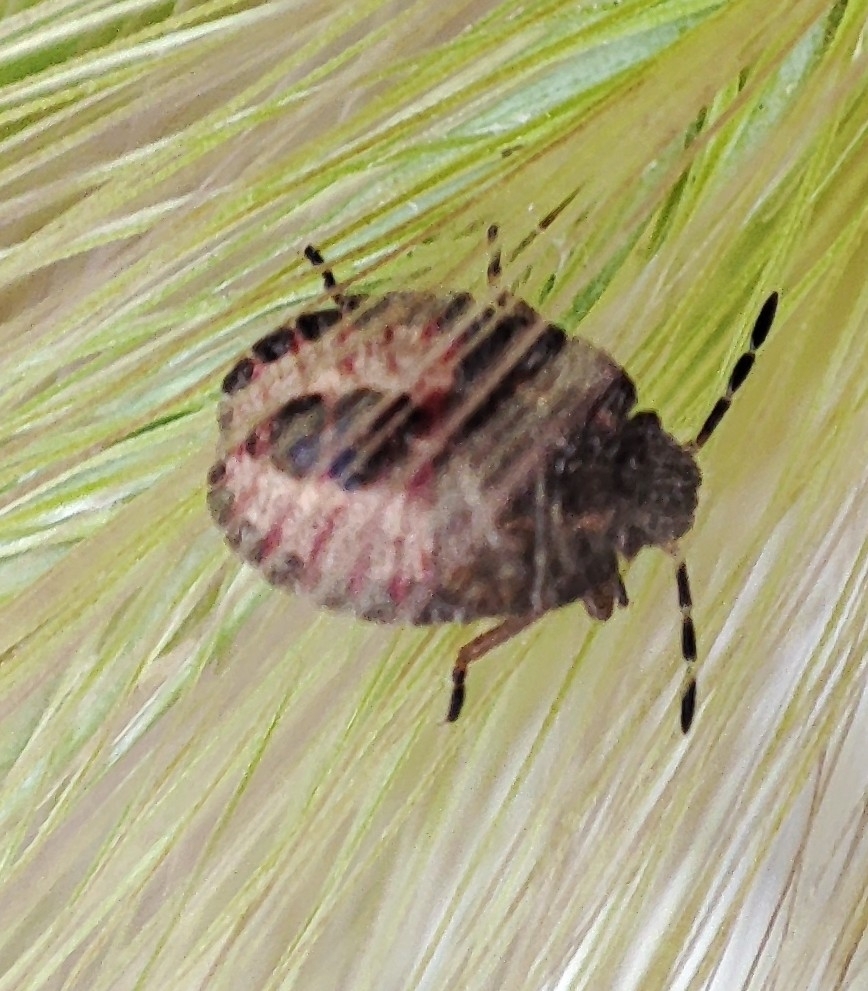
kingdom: Animalia
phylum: Arthropoda
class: Insecta
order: Hemiptera
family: Pentatomidae
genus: Dolycoris
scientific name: Dolycoris baccarum
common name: Sloe bug
